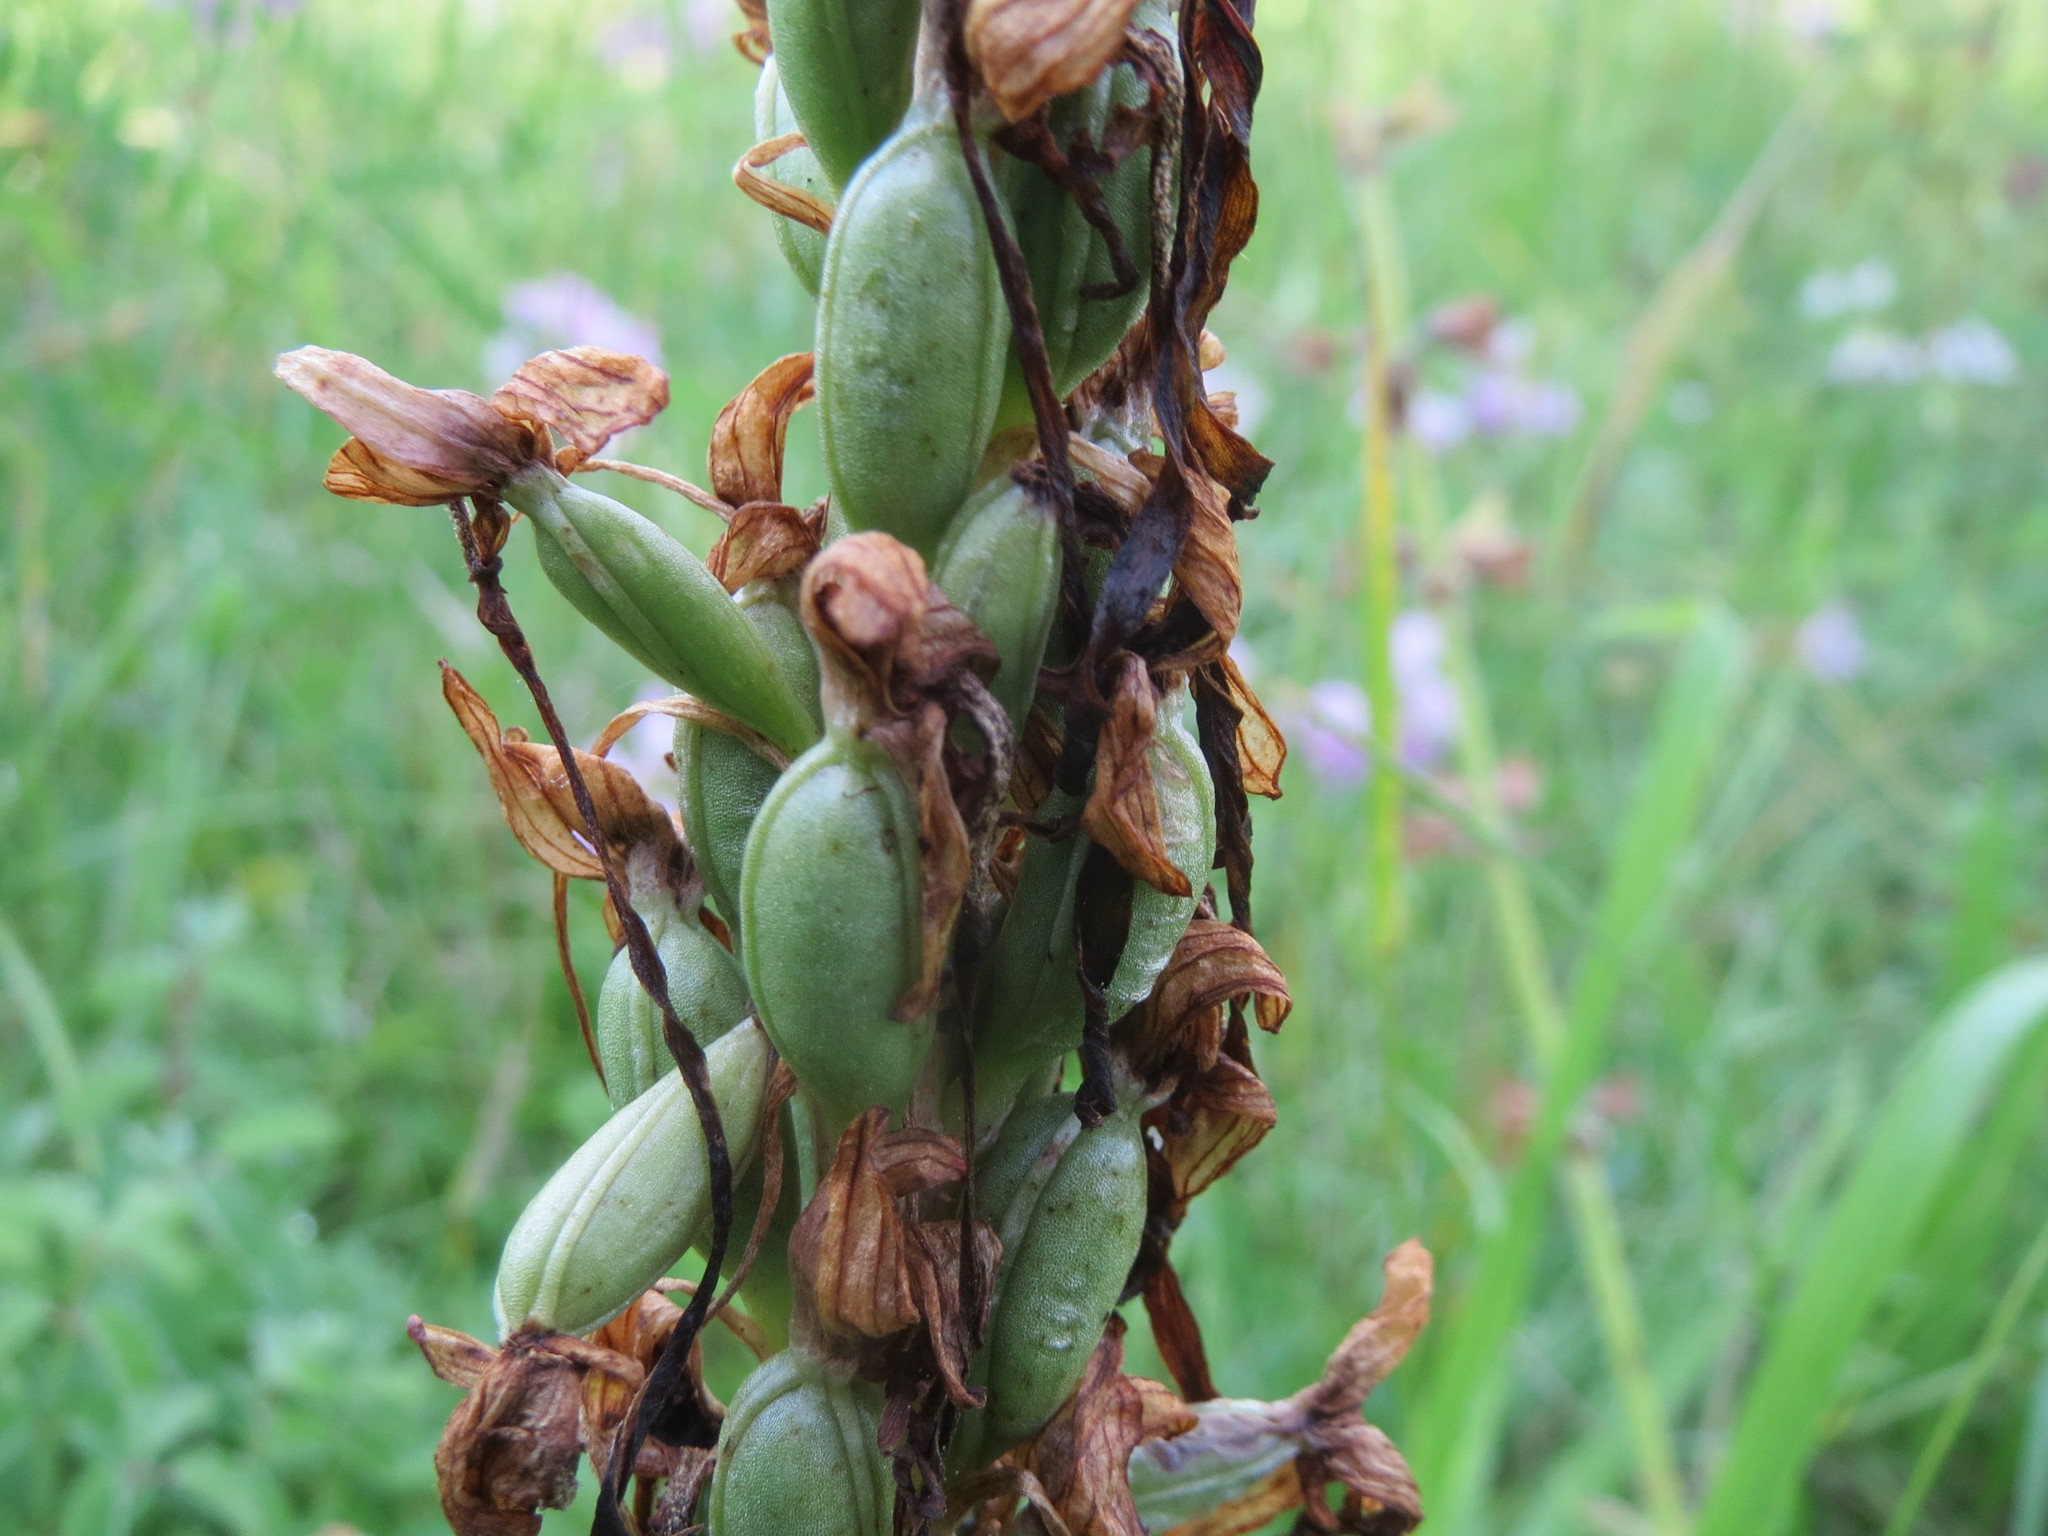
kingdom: Plantae
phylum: Tracheophyta
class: Liliopsida
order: Asparagales
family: Orchidaceae
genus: Himantoglossum
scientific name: Himantoglossum hircinum
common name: Lizard orchid
